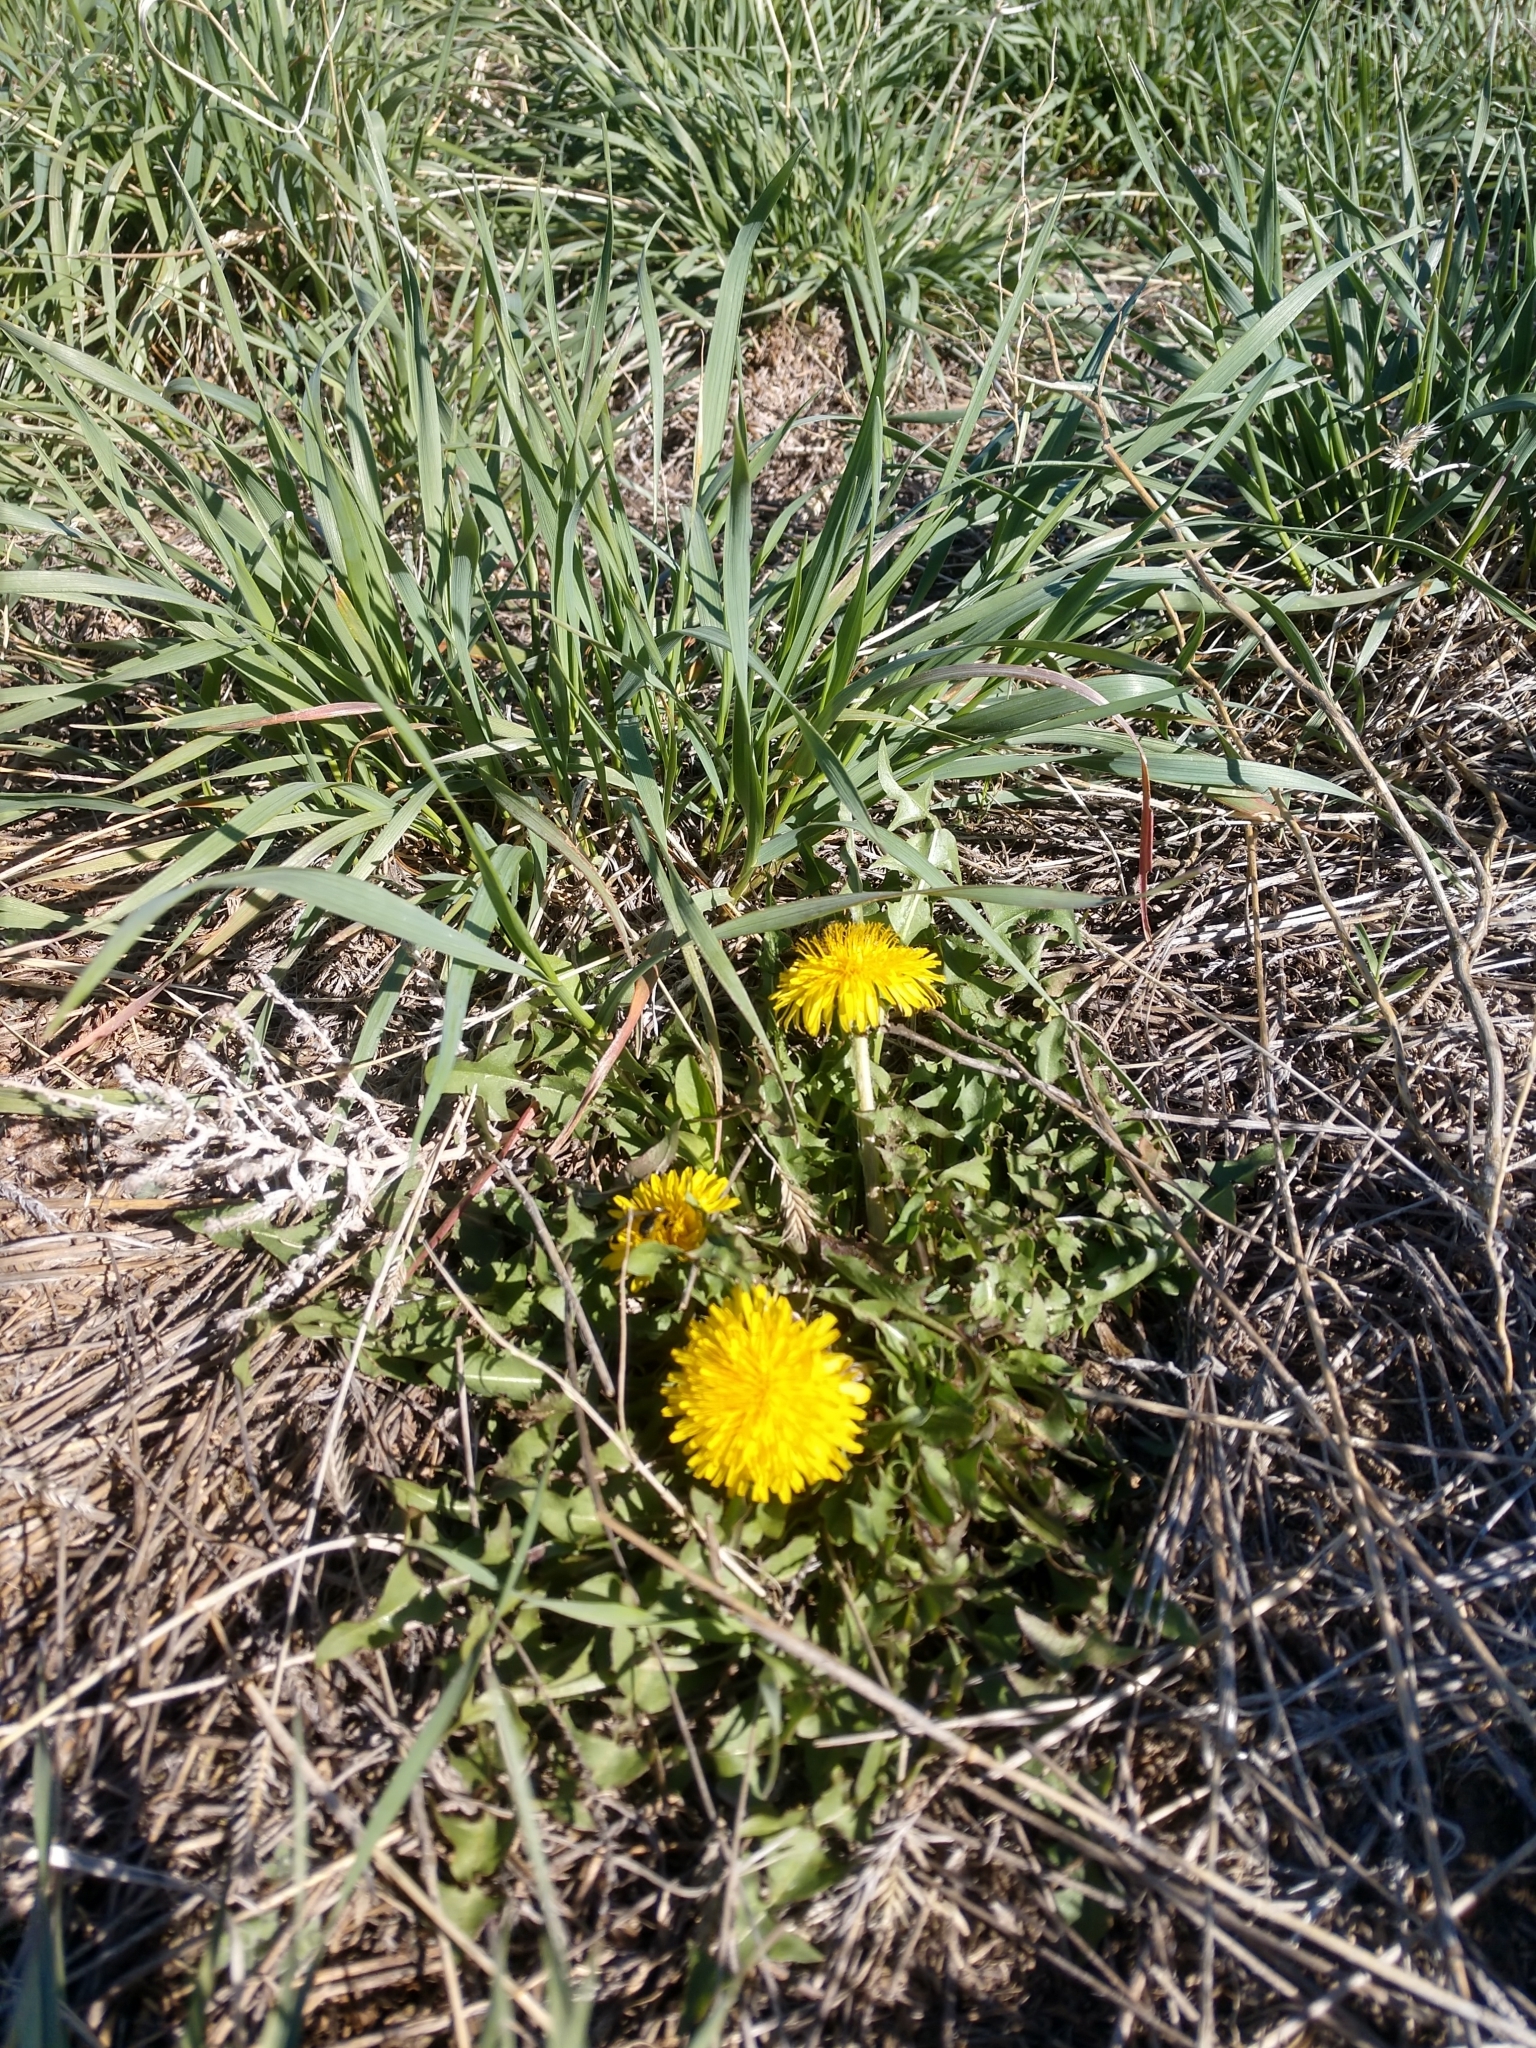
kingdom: Plantae
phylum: Tracheophyta
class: Magnoliopsida
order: Asterales
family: Asteraceae
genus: Taraxacum
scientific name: Taraxacum officinale
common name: Common dandelion
